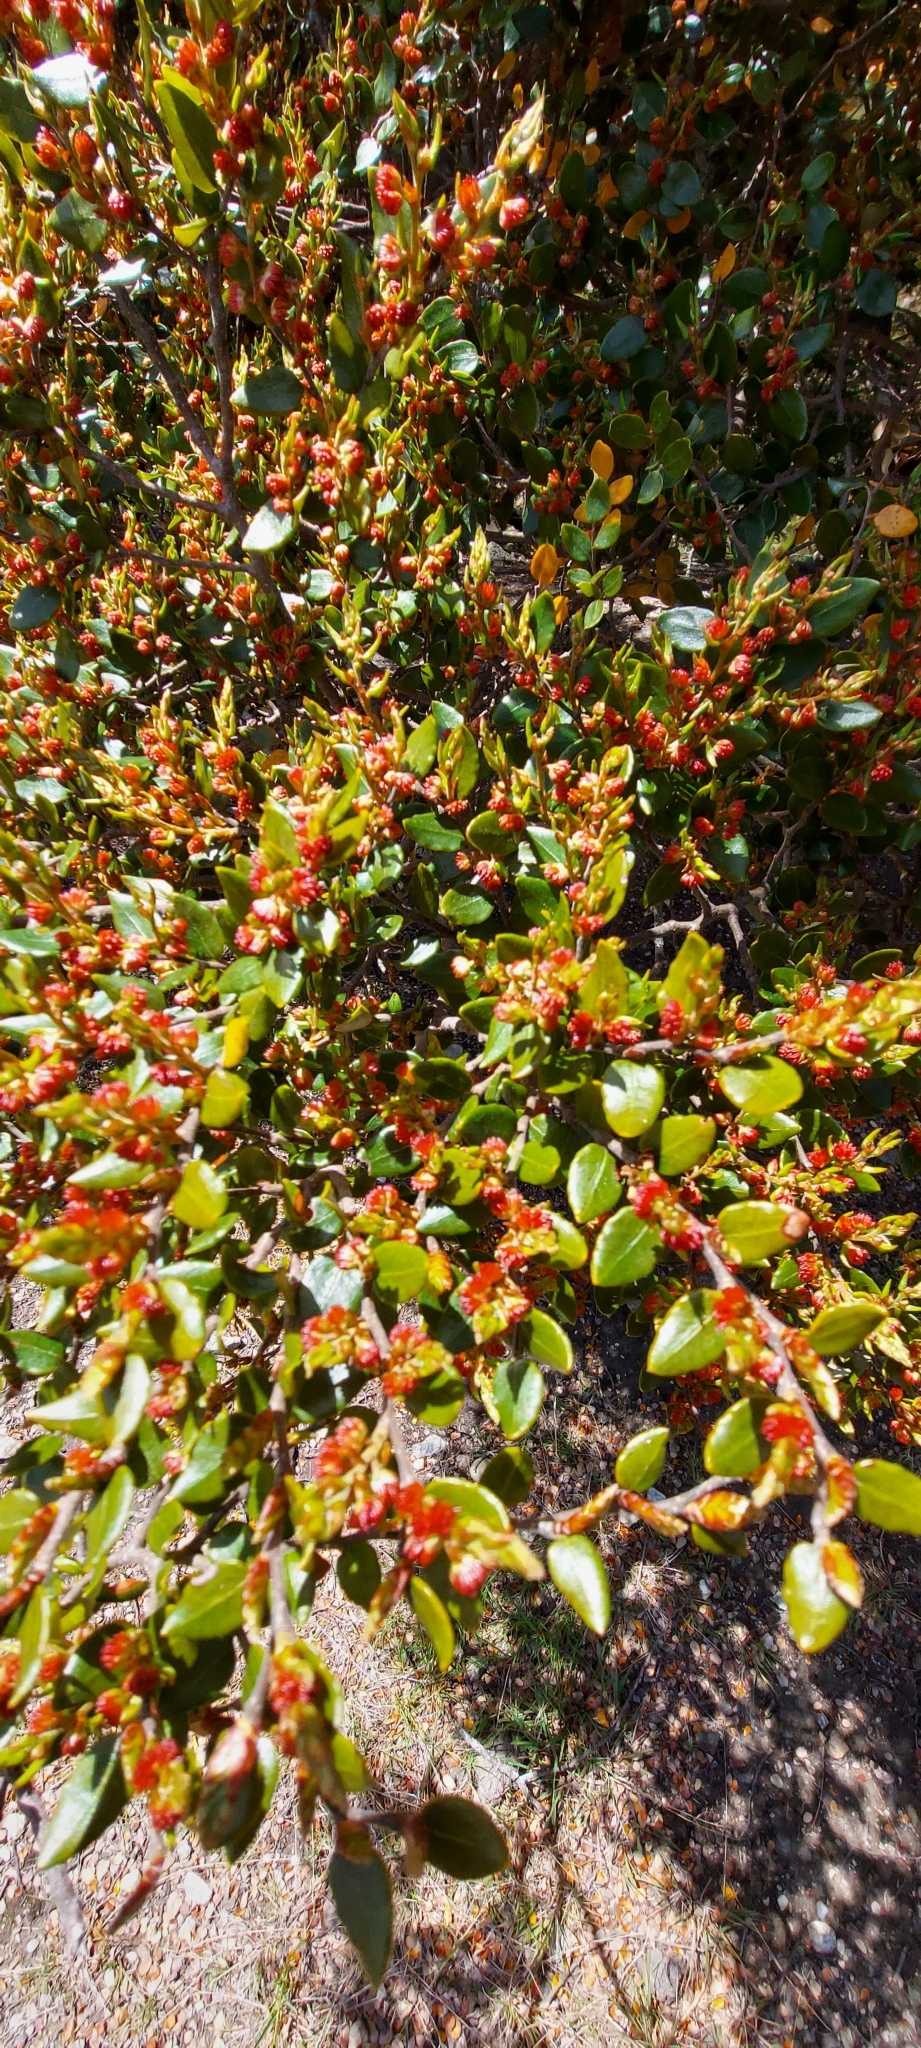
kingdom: Plantae
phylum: Tracheophyta
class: Magnoliopsida
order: Fagales
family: Nothofagaceae
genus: Nothofagus
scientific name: Nothofagus cliffortioides
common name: Mountain beech
